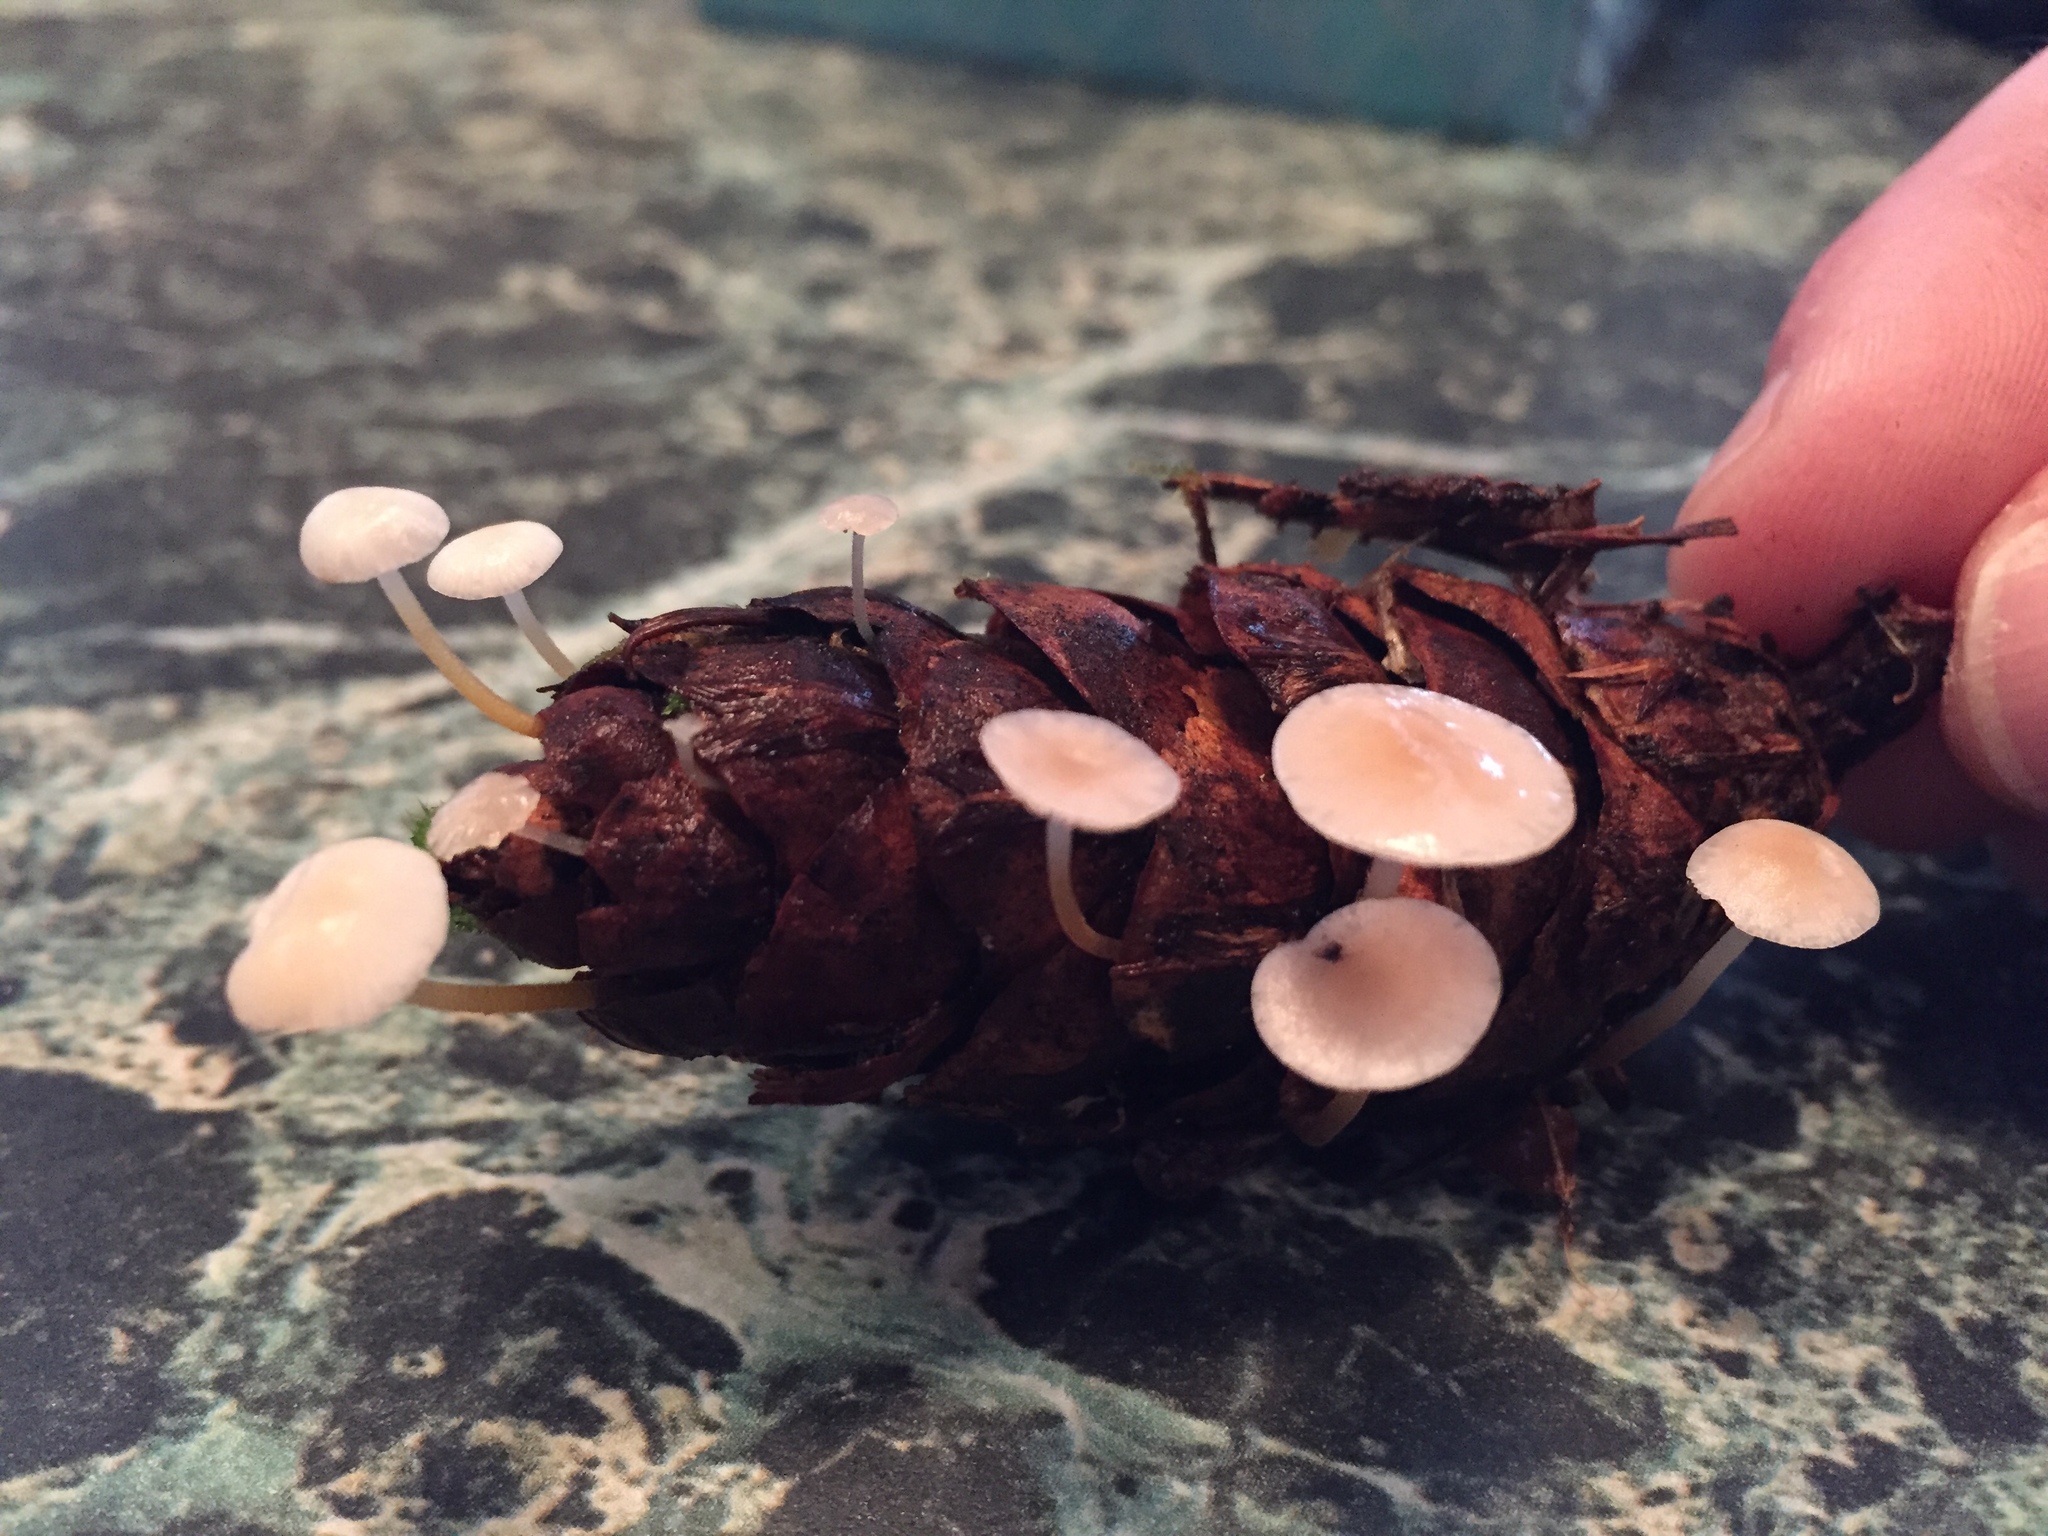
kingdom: Fungi
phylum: Basidiomycota
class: Agaricomycetes
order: Agaricales
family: Physalacriaceae
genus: Strobilurus
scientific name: Strobilurus trullisatus
